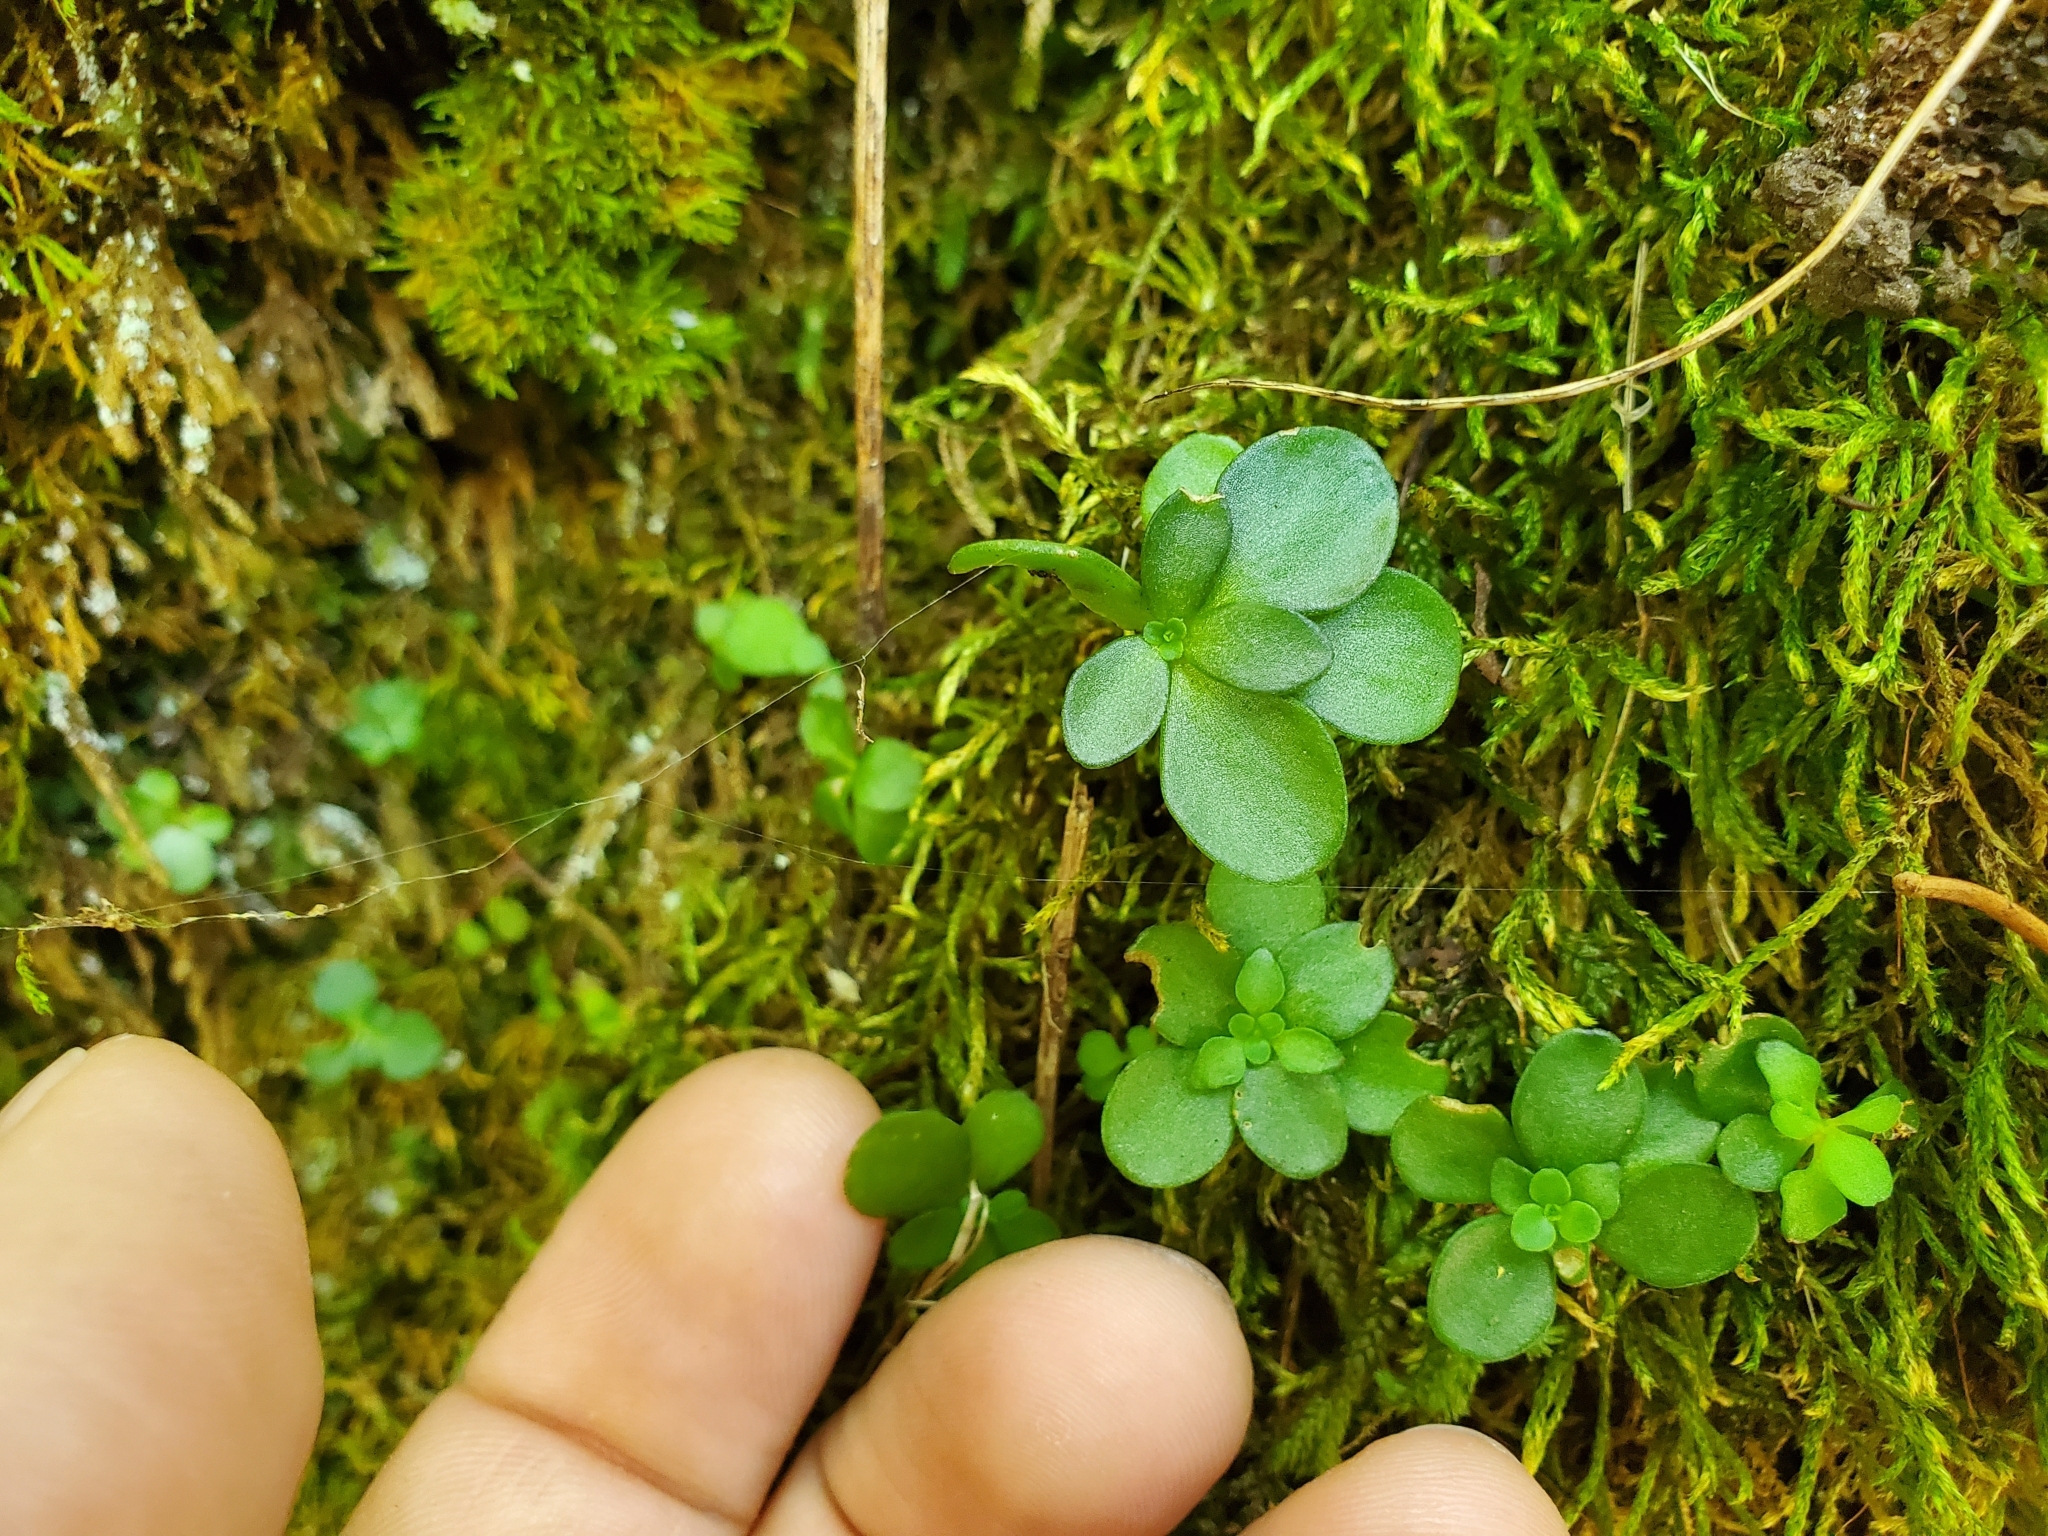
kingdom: Plantae
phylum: Tracheophyta
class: Magnoliopsida
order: Saxifragales
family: Crassulaceae
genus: Sedum
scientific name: Sedum ternatum
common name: Wild stonecrop
